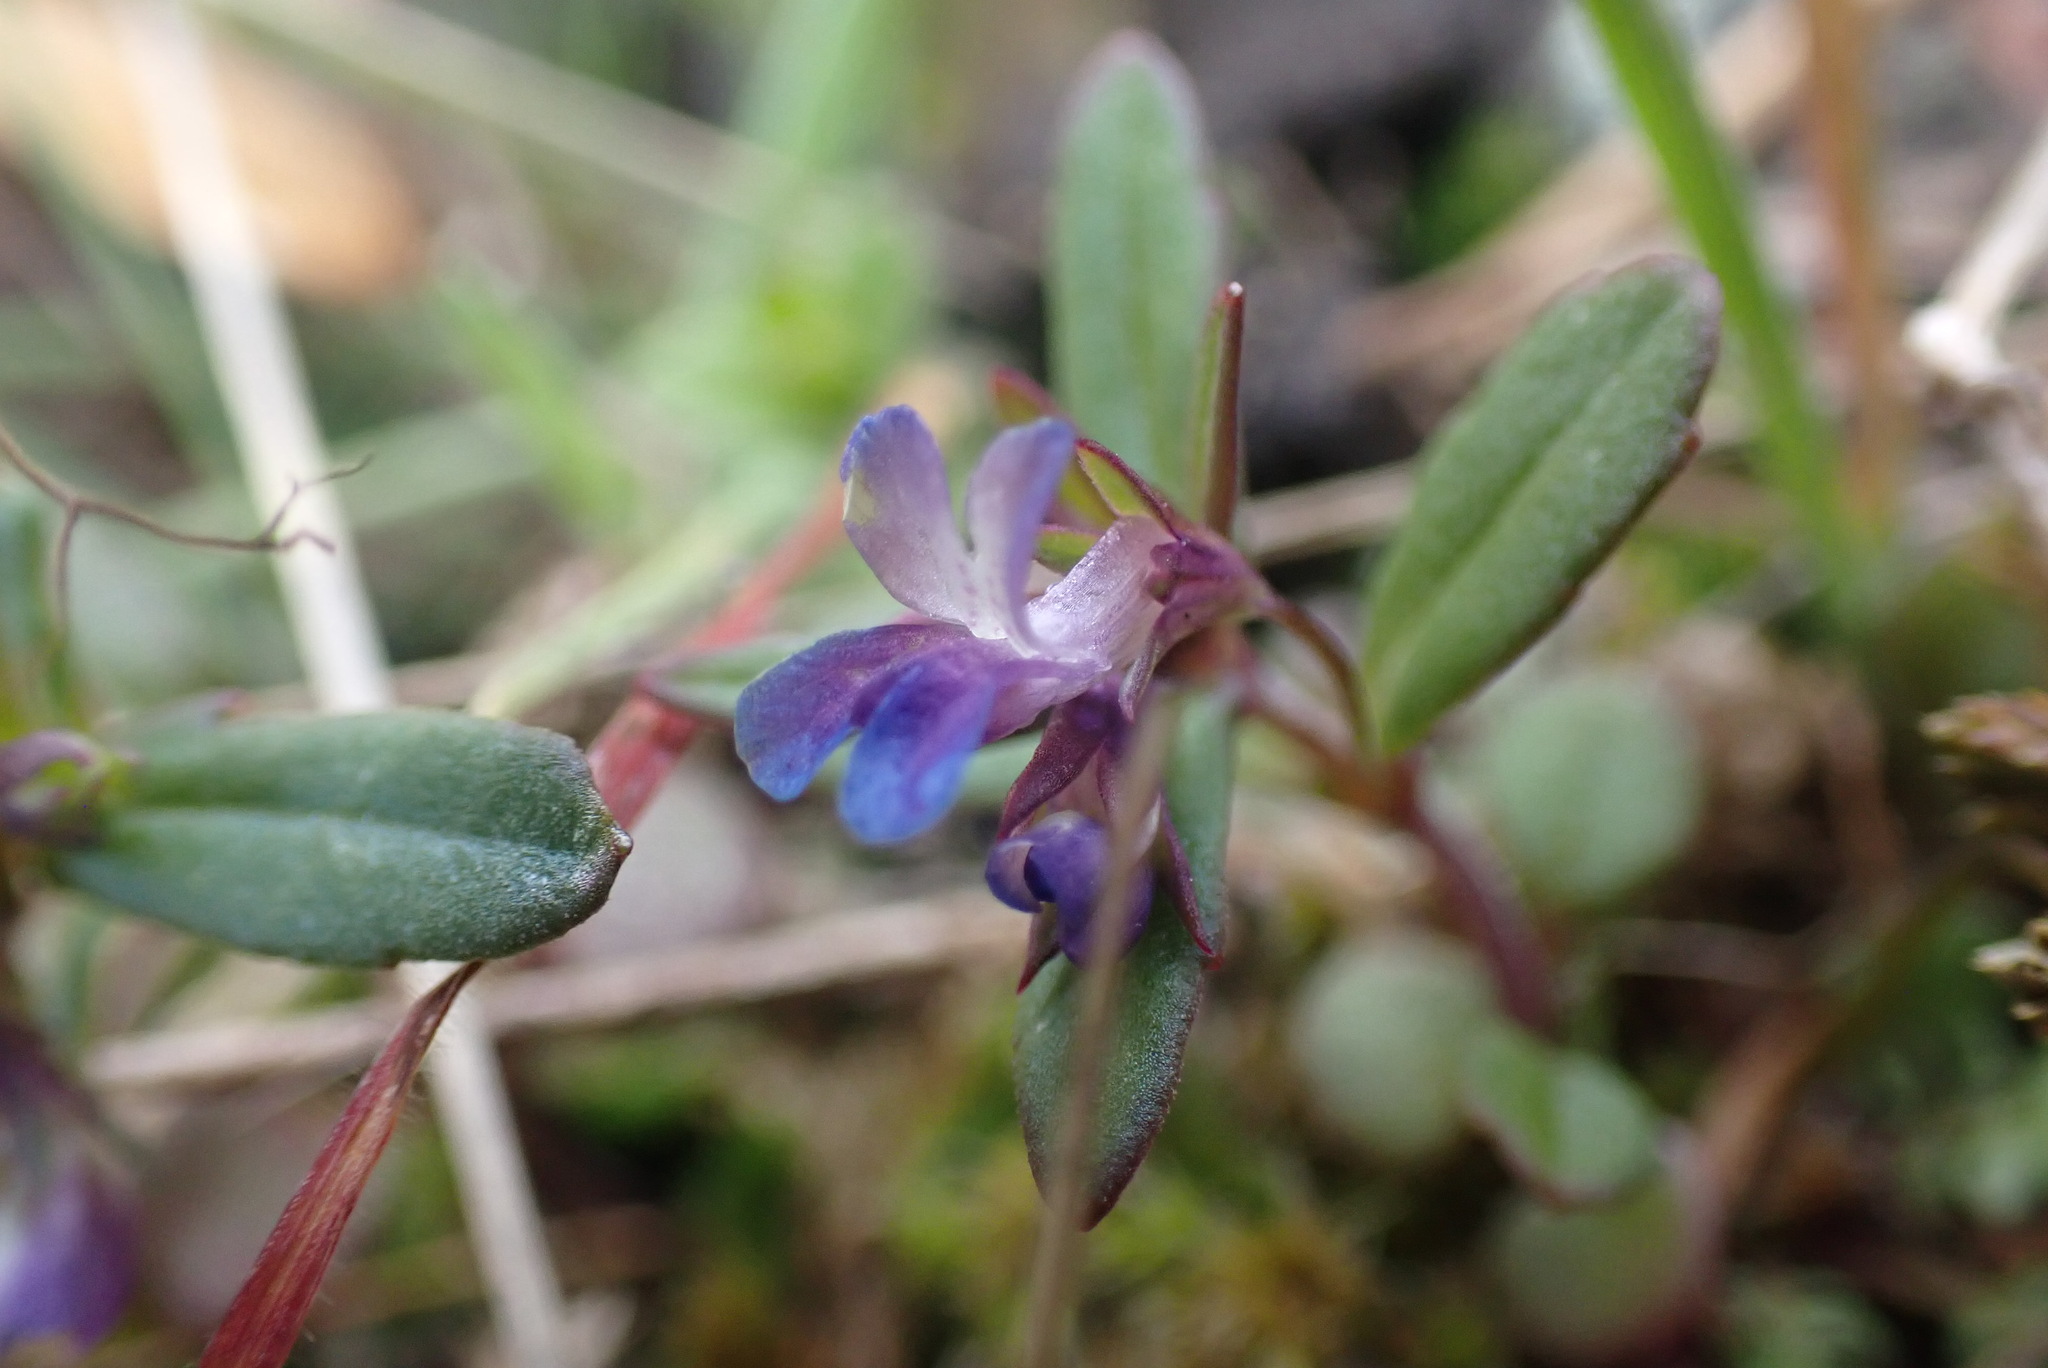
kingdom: Plantae
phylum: Tracheophyta
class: Magnoliopsida
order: Lamiales
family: Plantaginaceae
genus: Collinsia
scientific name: Collinsia parviflora
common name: Blue-lips
